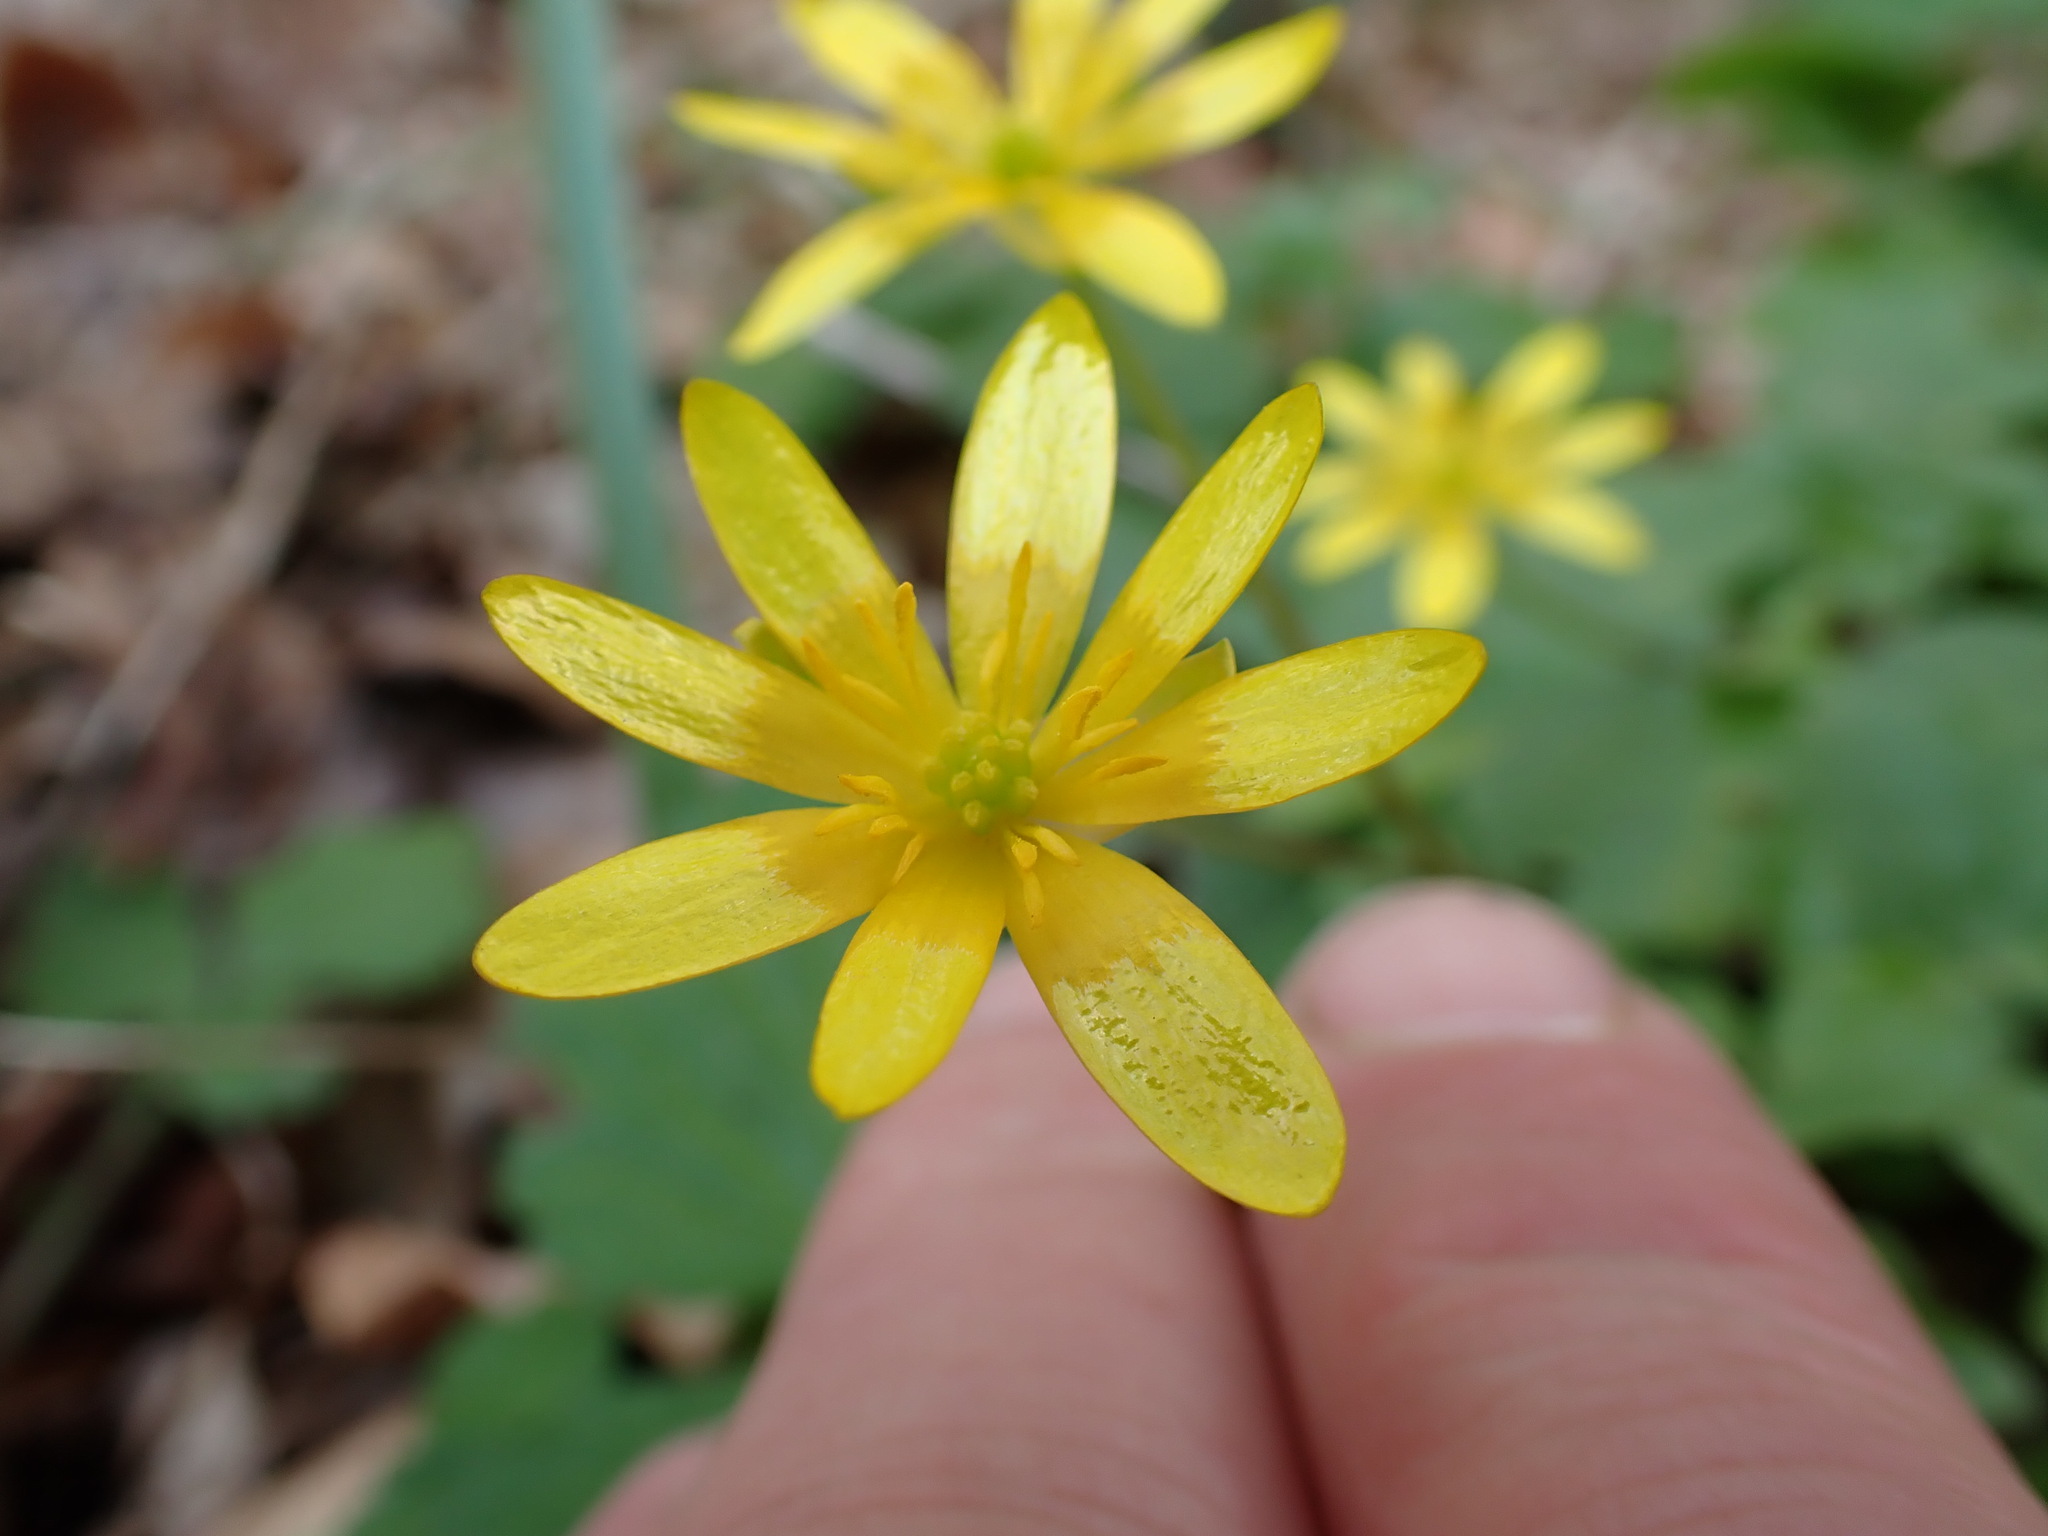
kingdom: Plantae
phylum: Tracheophyta
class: Magnoliopsida
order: Ranunculales
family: Ranunculaceae
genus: Ficaria
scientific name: Ficaria verna
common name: Lesser celandine
